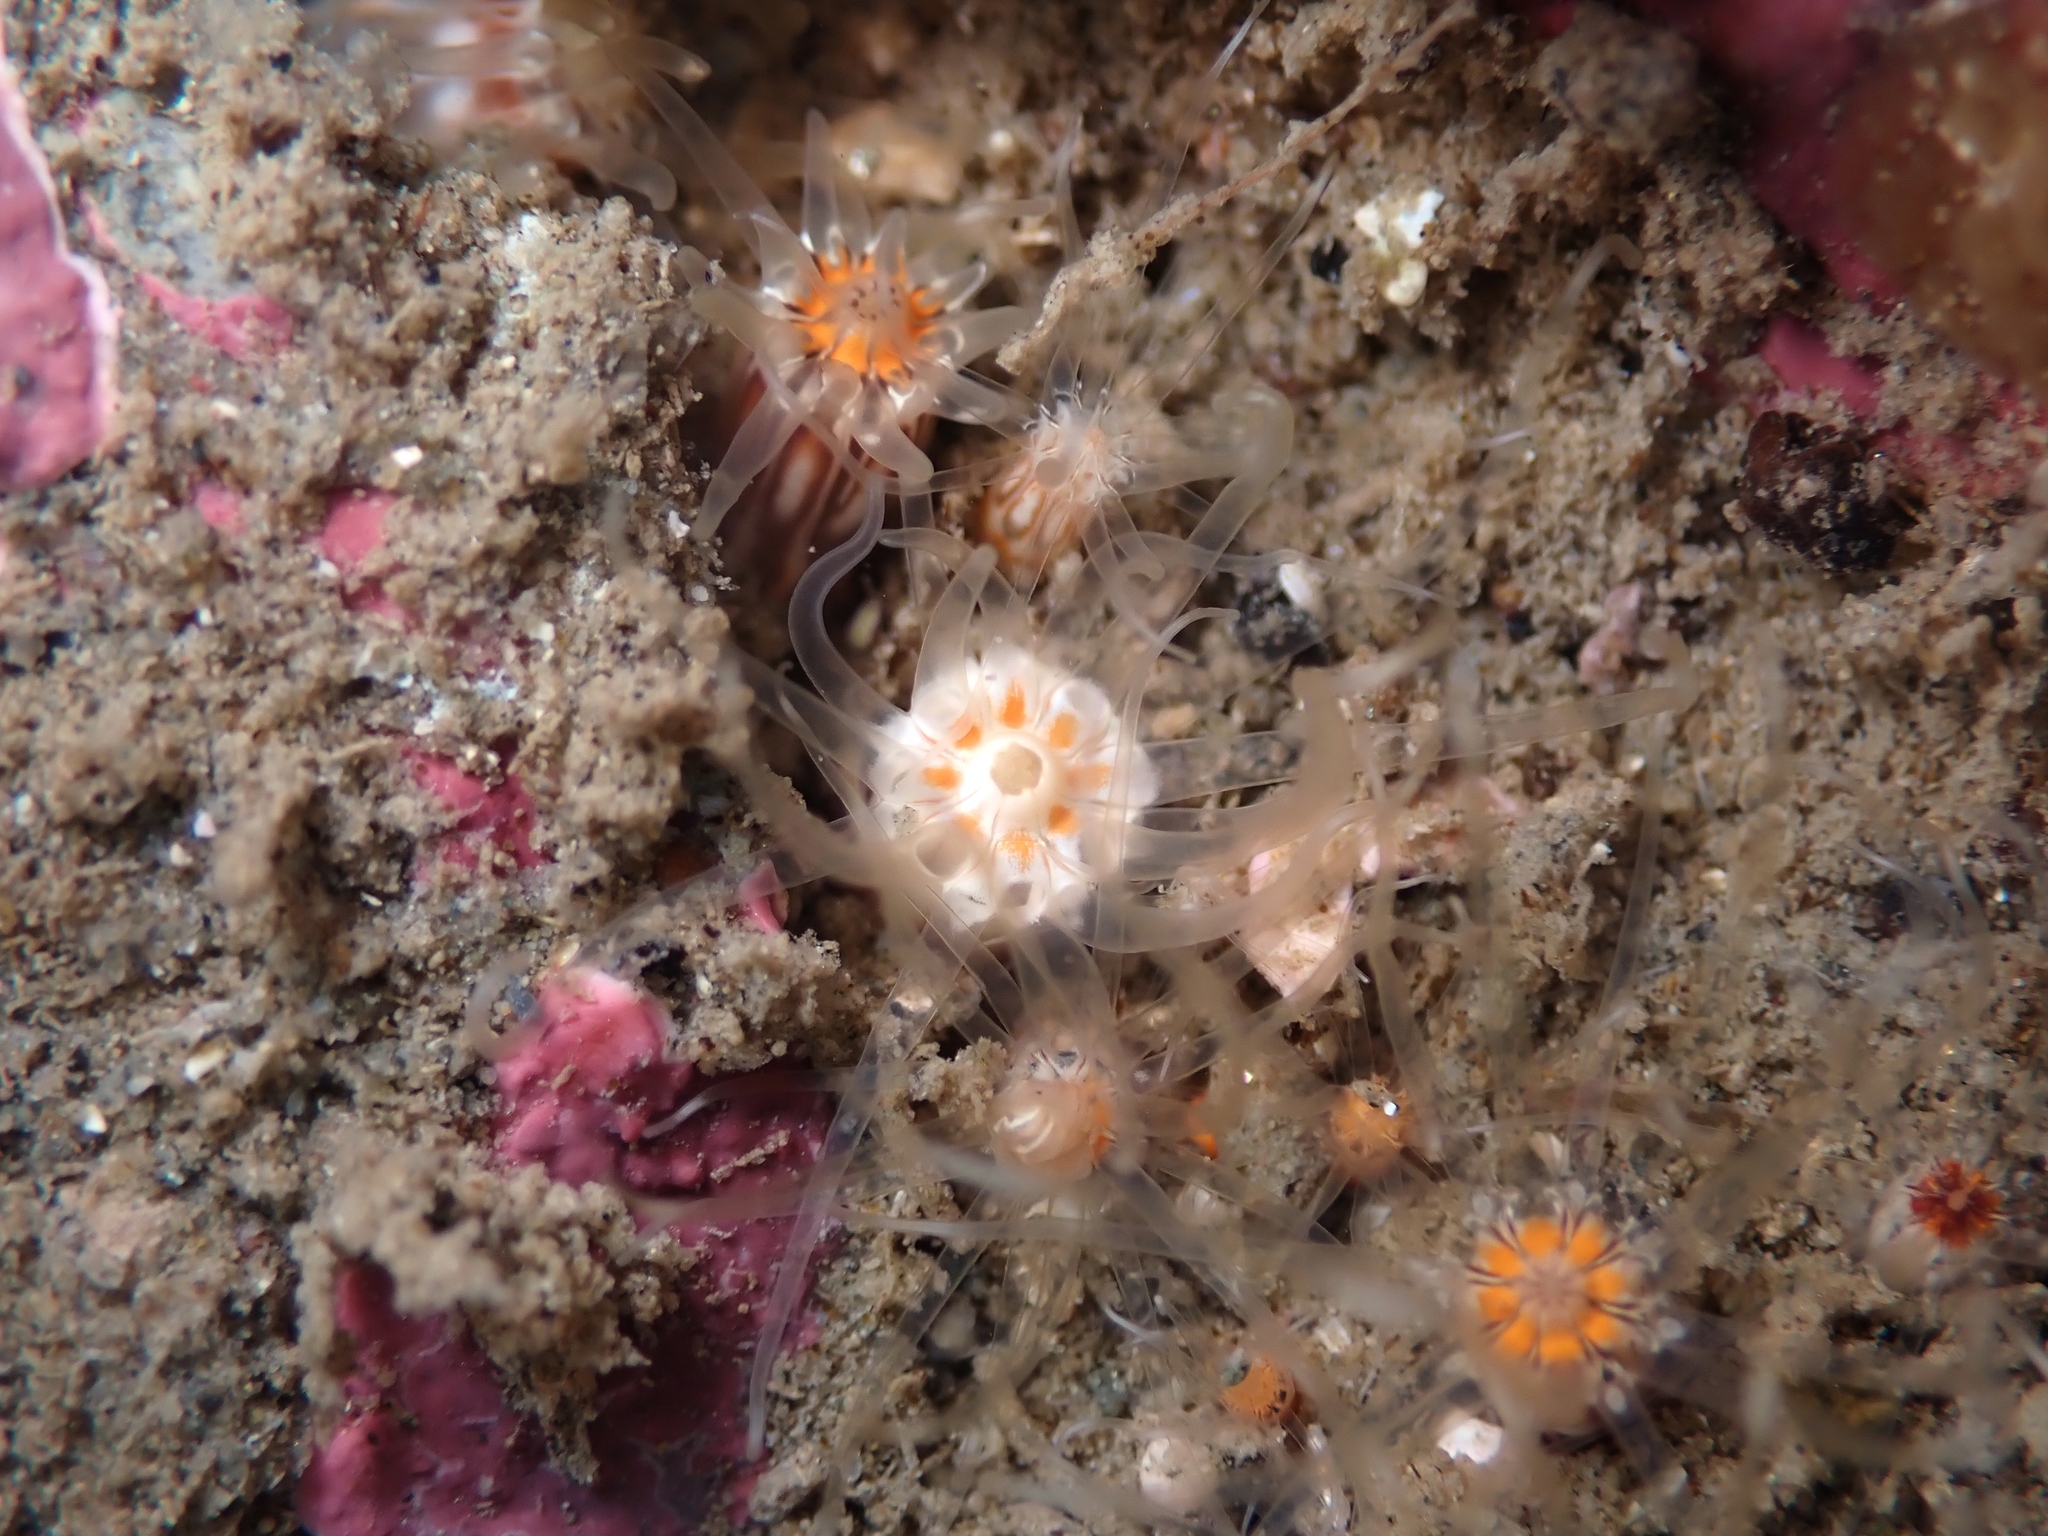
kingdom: Animalia
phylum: Cnidaria
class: Anthozoa
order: Actiniaria
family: Edwardsiidae
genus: Edwardsia
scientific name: Edwardsia neozelanica
